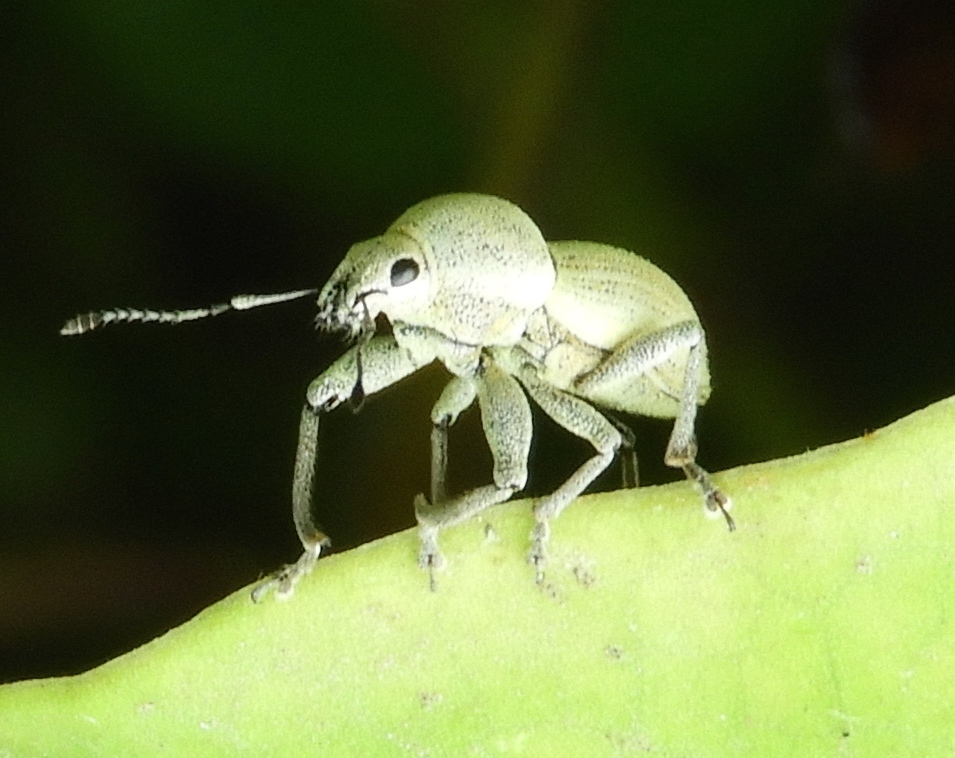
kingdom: Animalia
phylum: Arthropoda
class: Insecta
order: Coleoptera
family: Curculionidae
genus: Pantomorus
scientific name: Pantomorus
